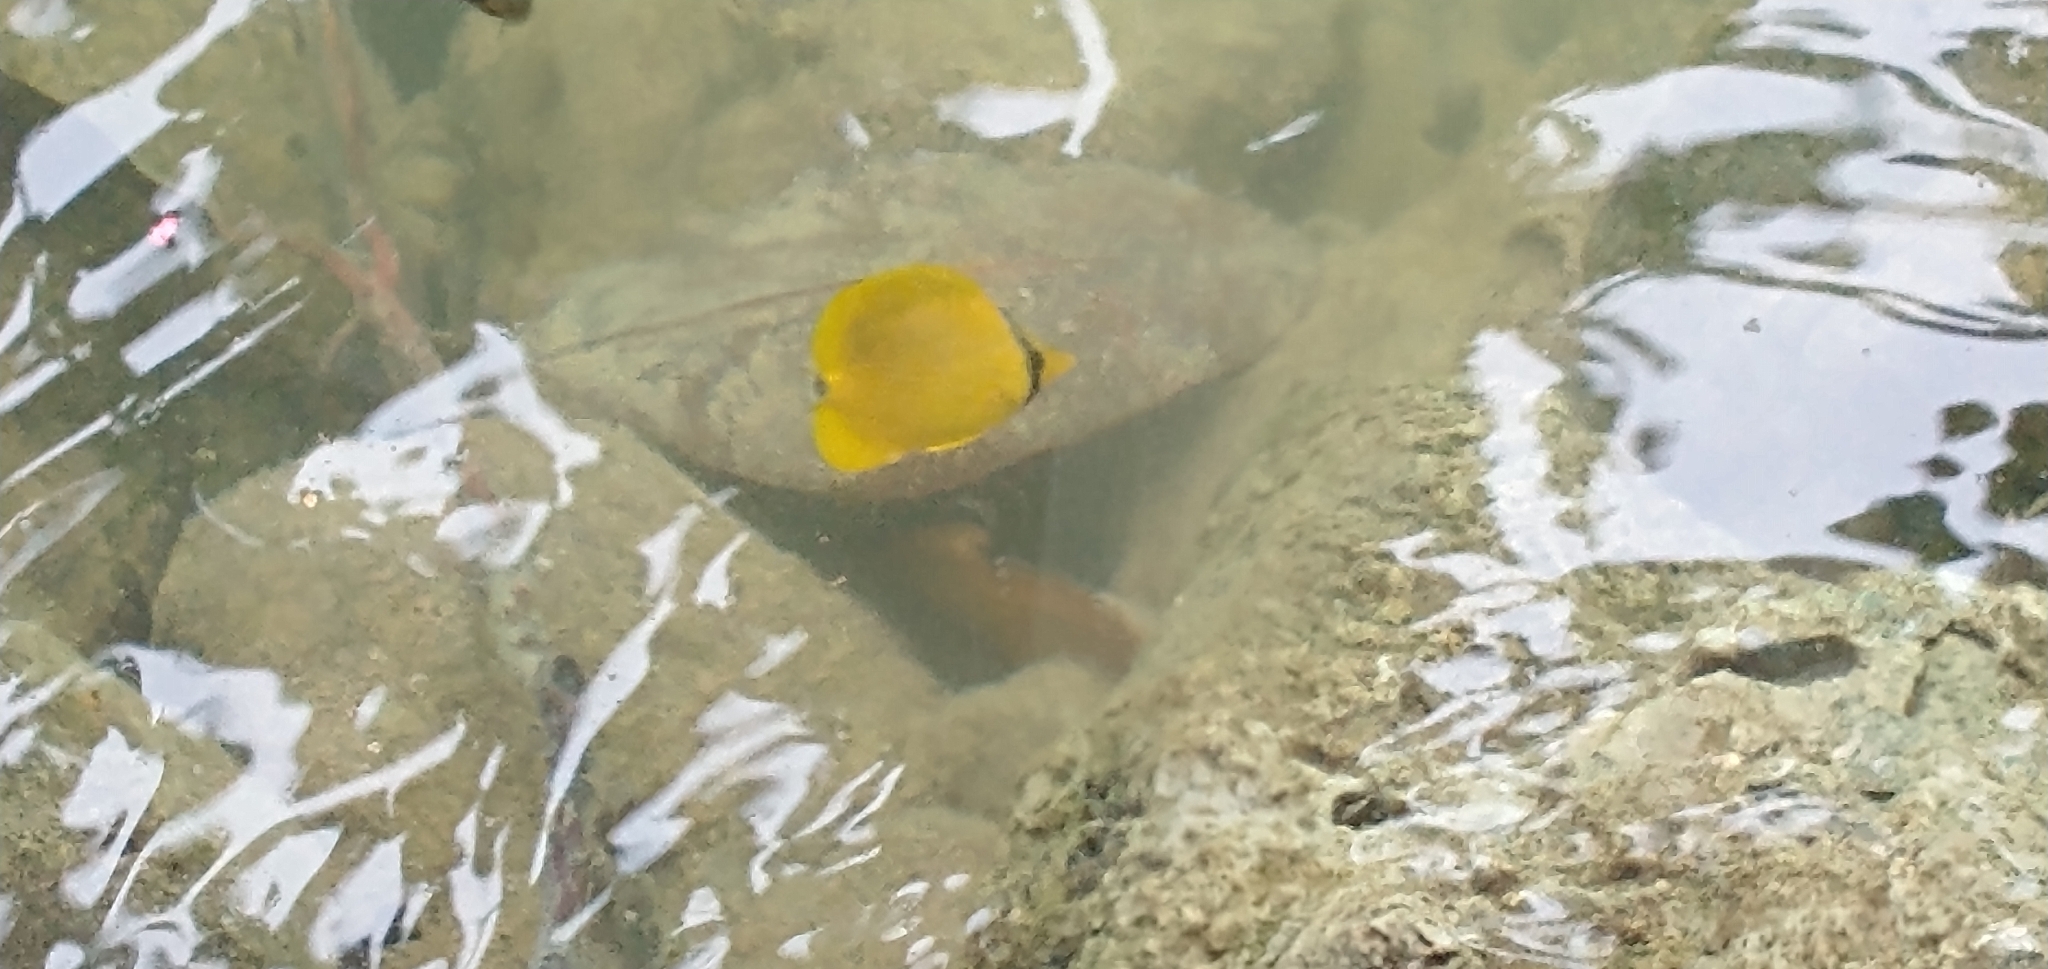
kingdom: Animalia
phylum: Chordata
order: Perciformes
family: Chaetodontidae
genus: Chaetodon
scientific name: Chaetodon semeion
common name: Dotted butterflyfish
